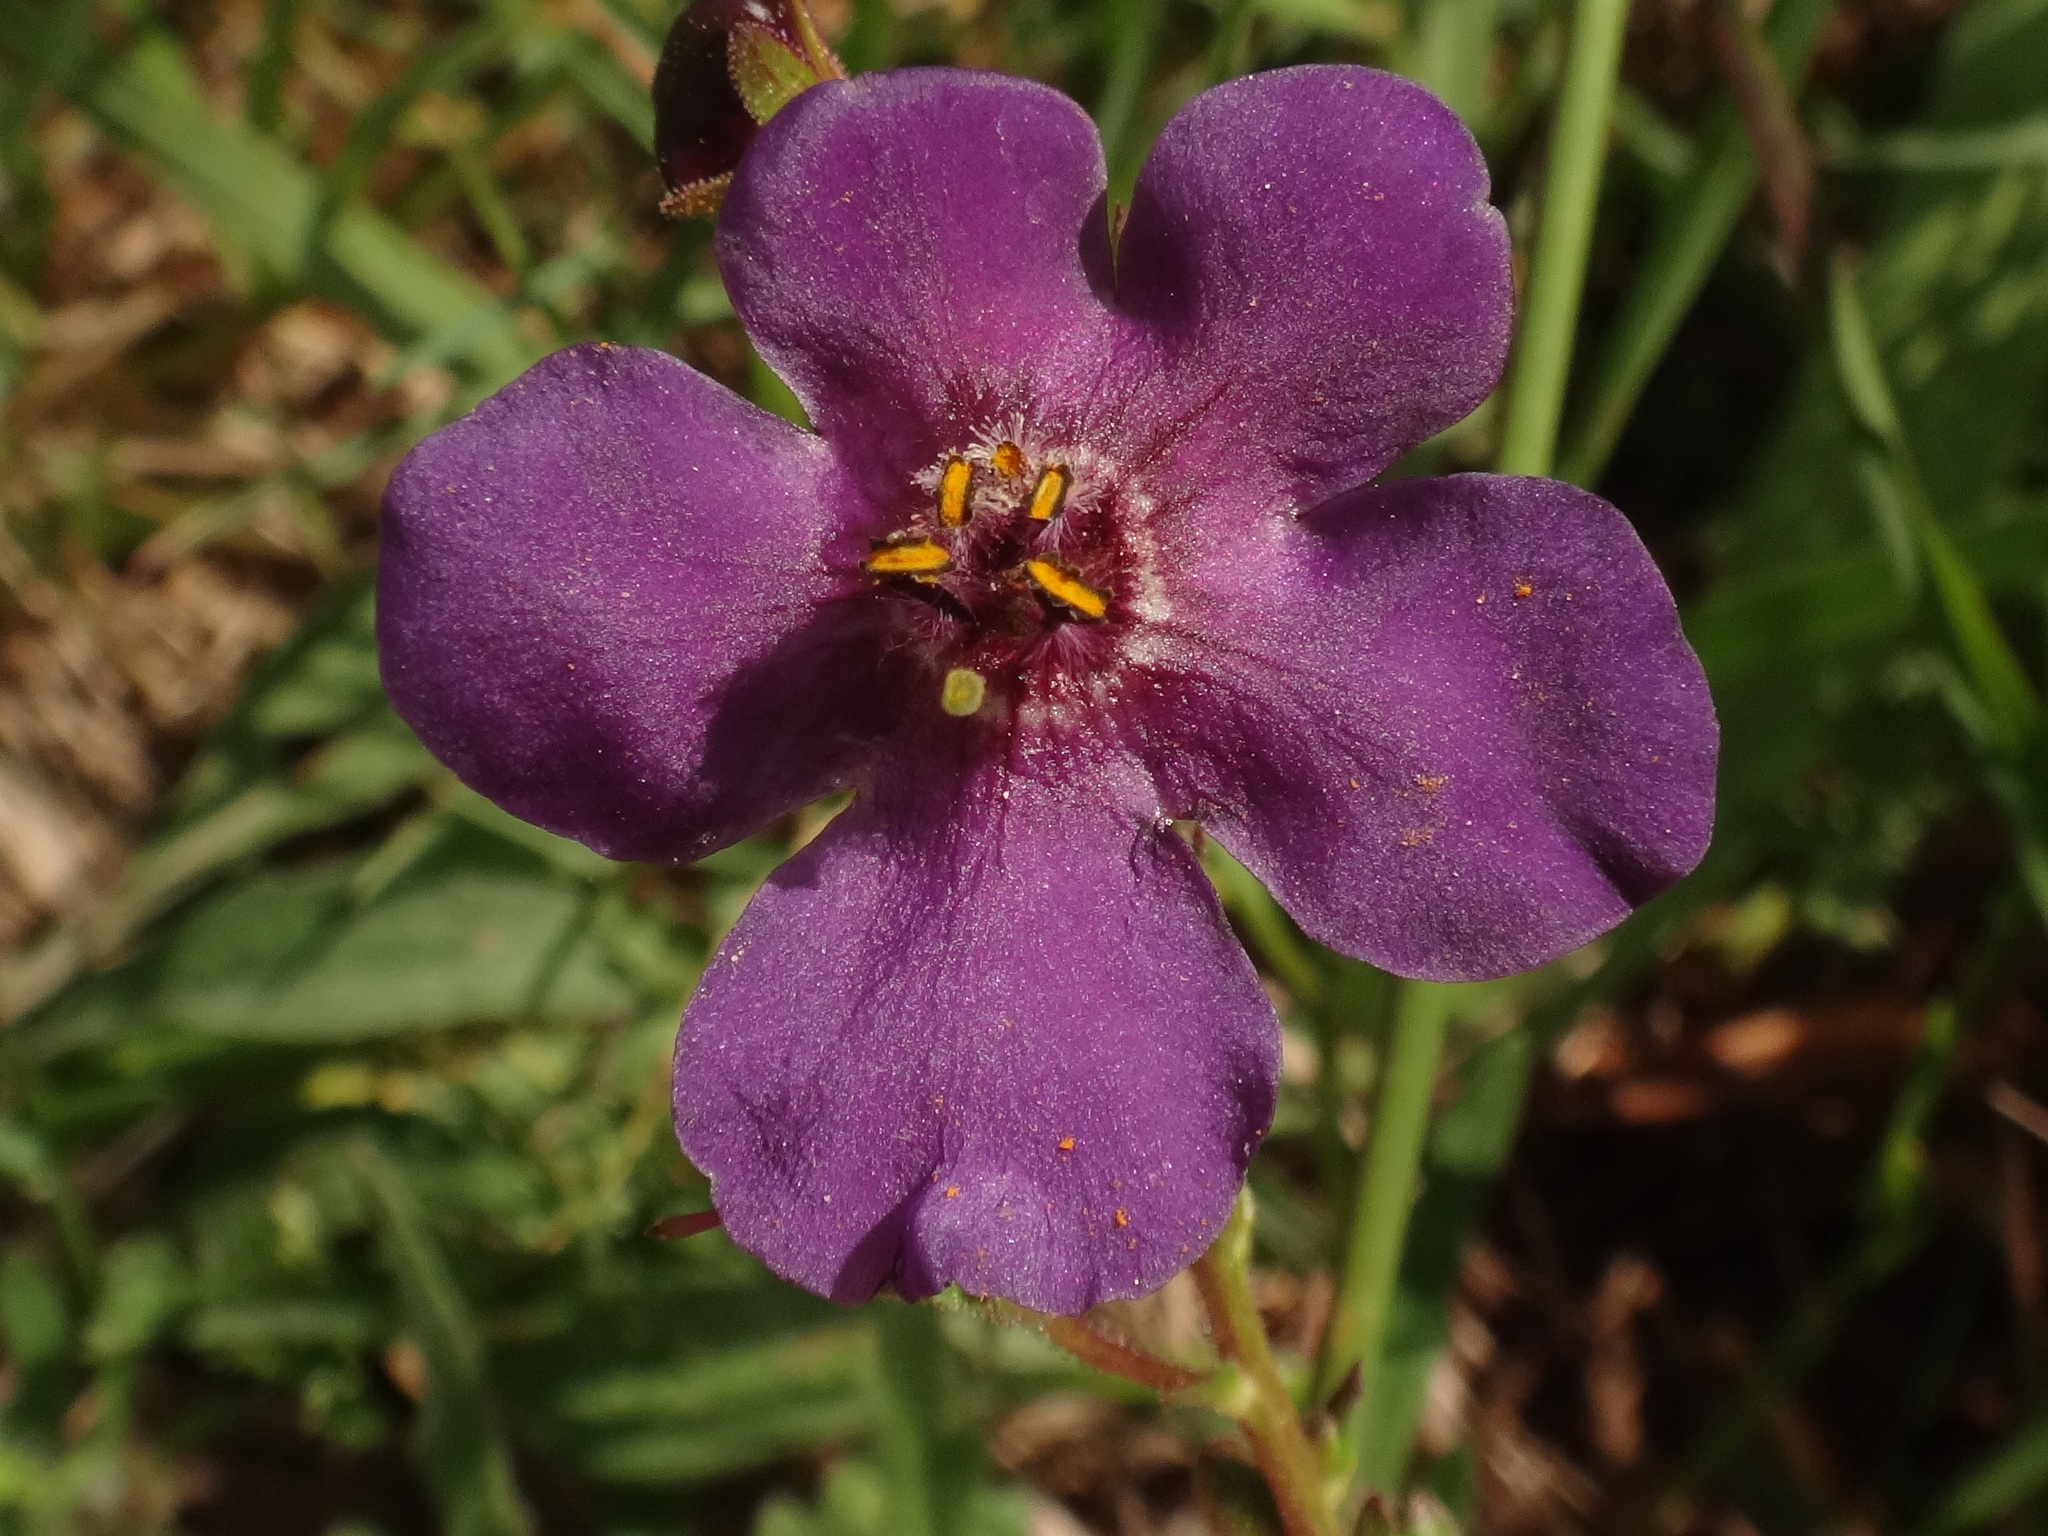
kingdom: Plantae
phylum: Tracheophyta
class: Magnoliopsida
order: Lamiales
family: Scrophulariaceae
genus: Verbascum
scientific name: Verbascum phoeniceum
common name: Purple mullein
